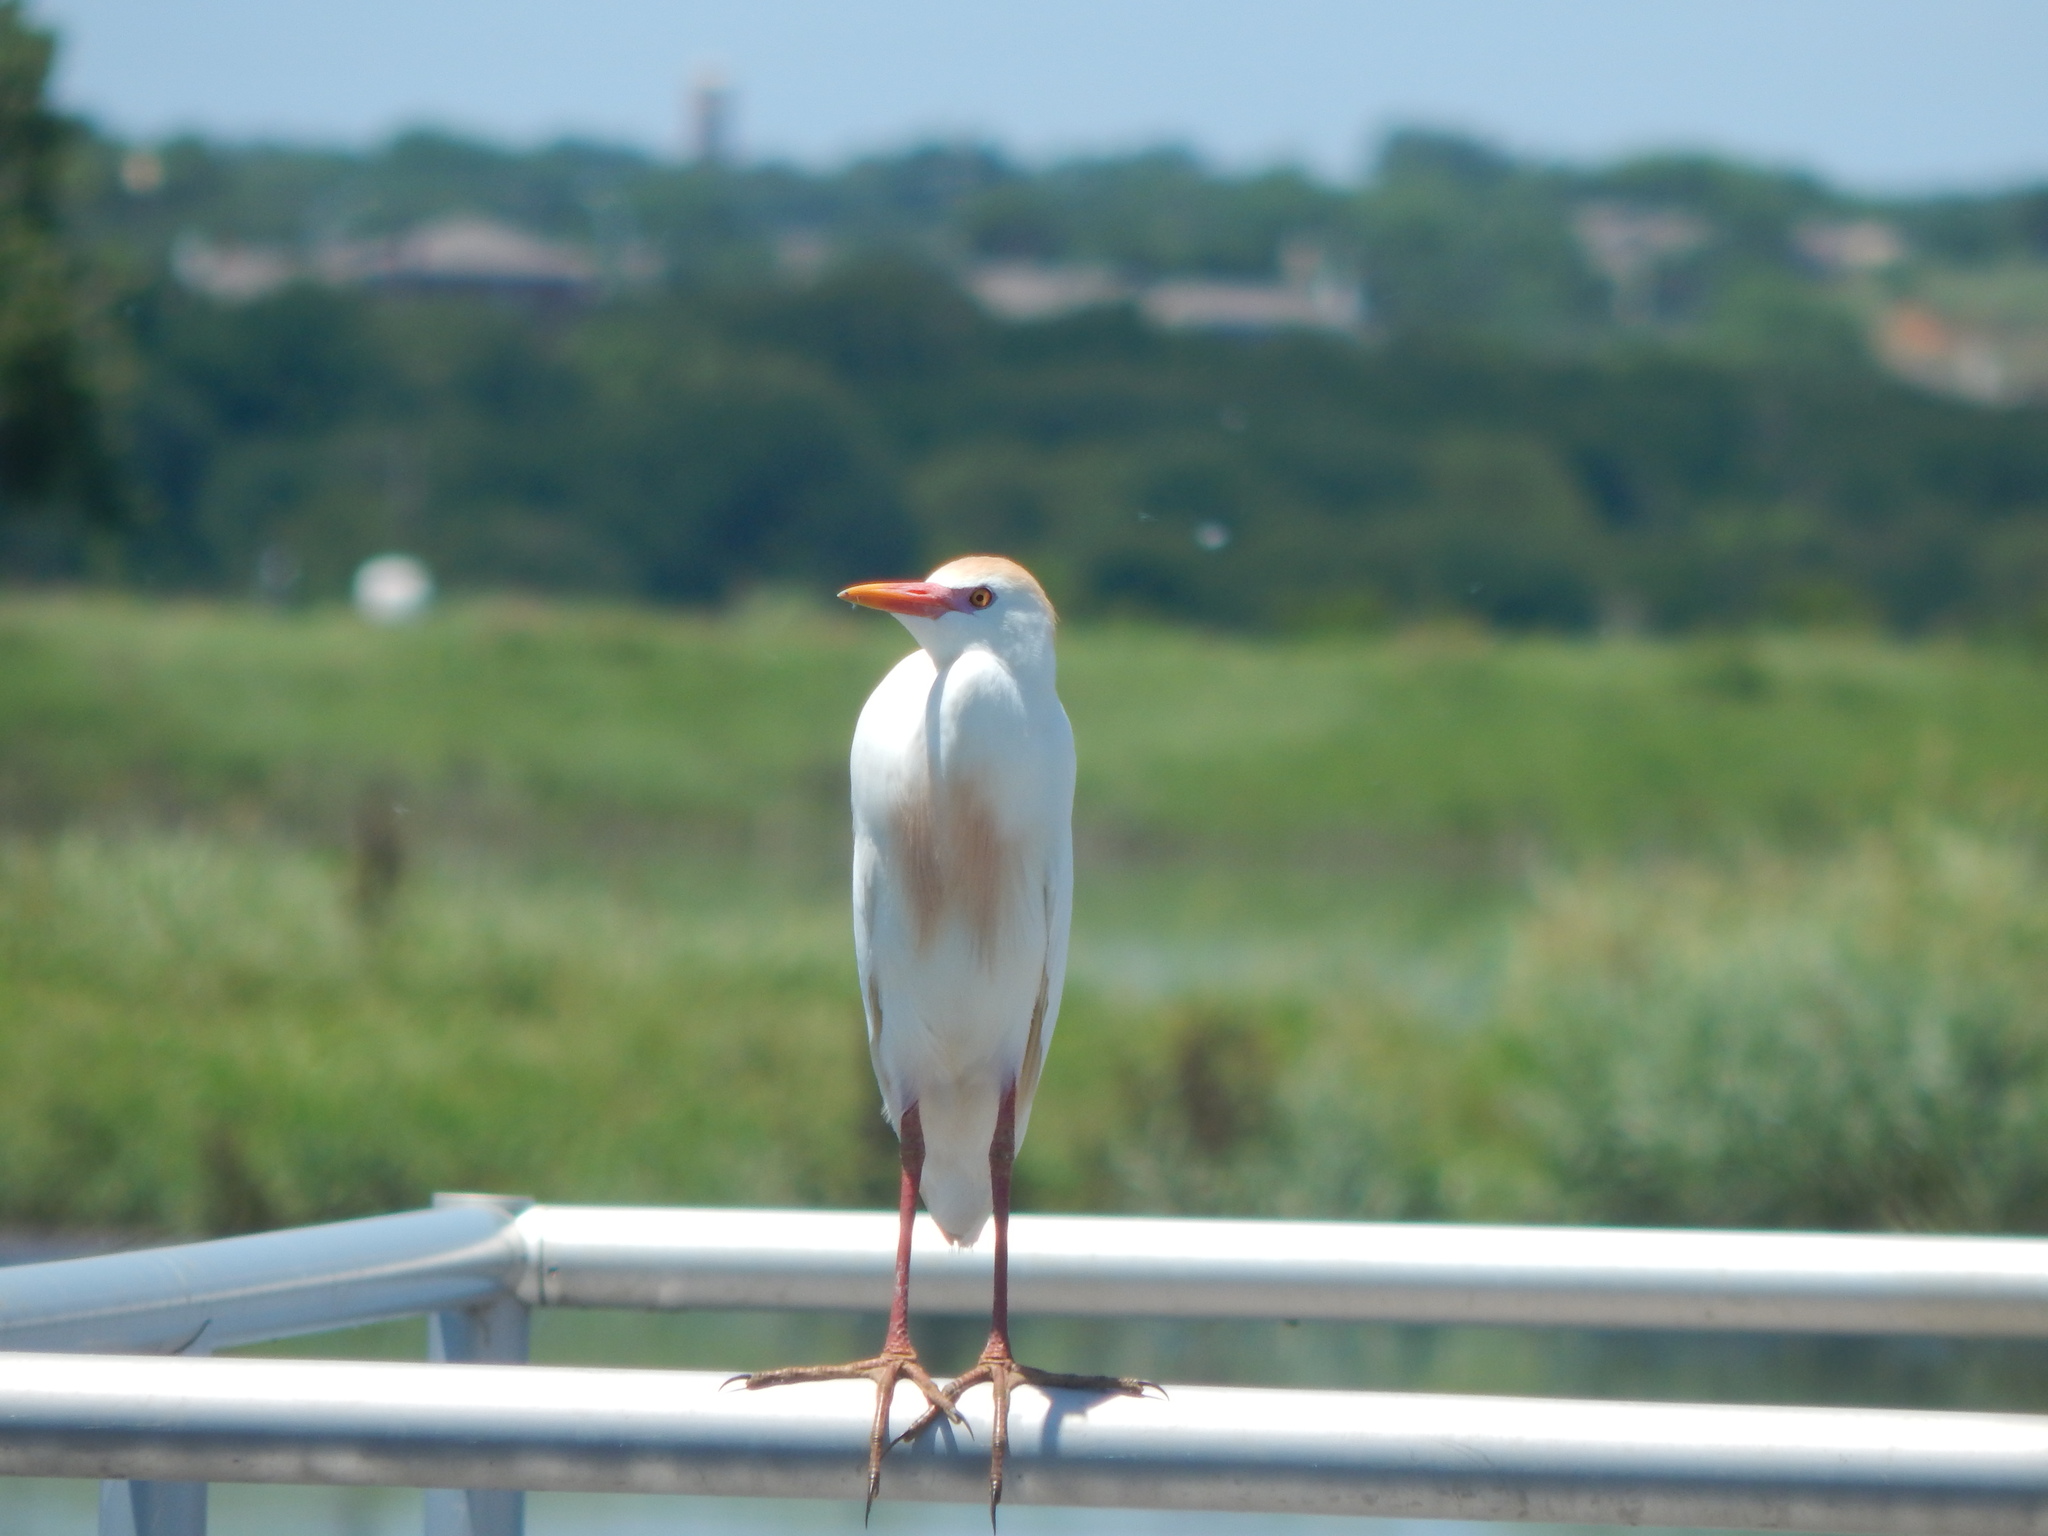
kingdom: Animalia
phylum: Chordata
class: Aves
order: Pelecaniformes
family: Ardeidae
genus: Bubulcus
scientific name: Bubulcus ibis
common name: Cattle egret
